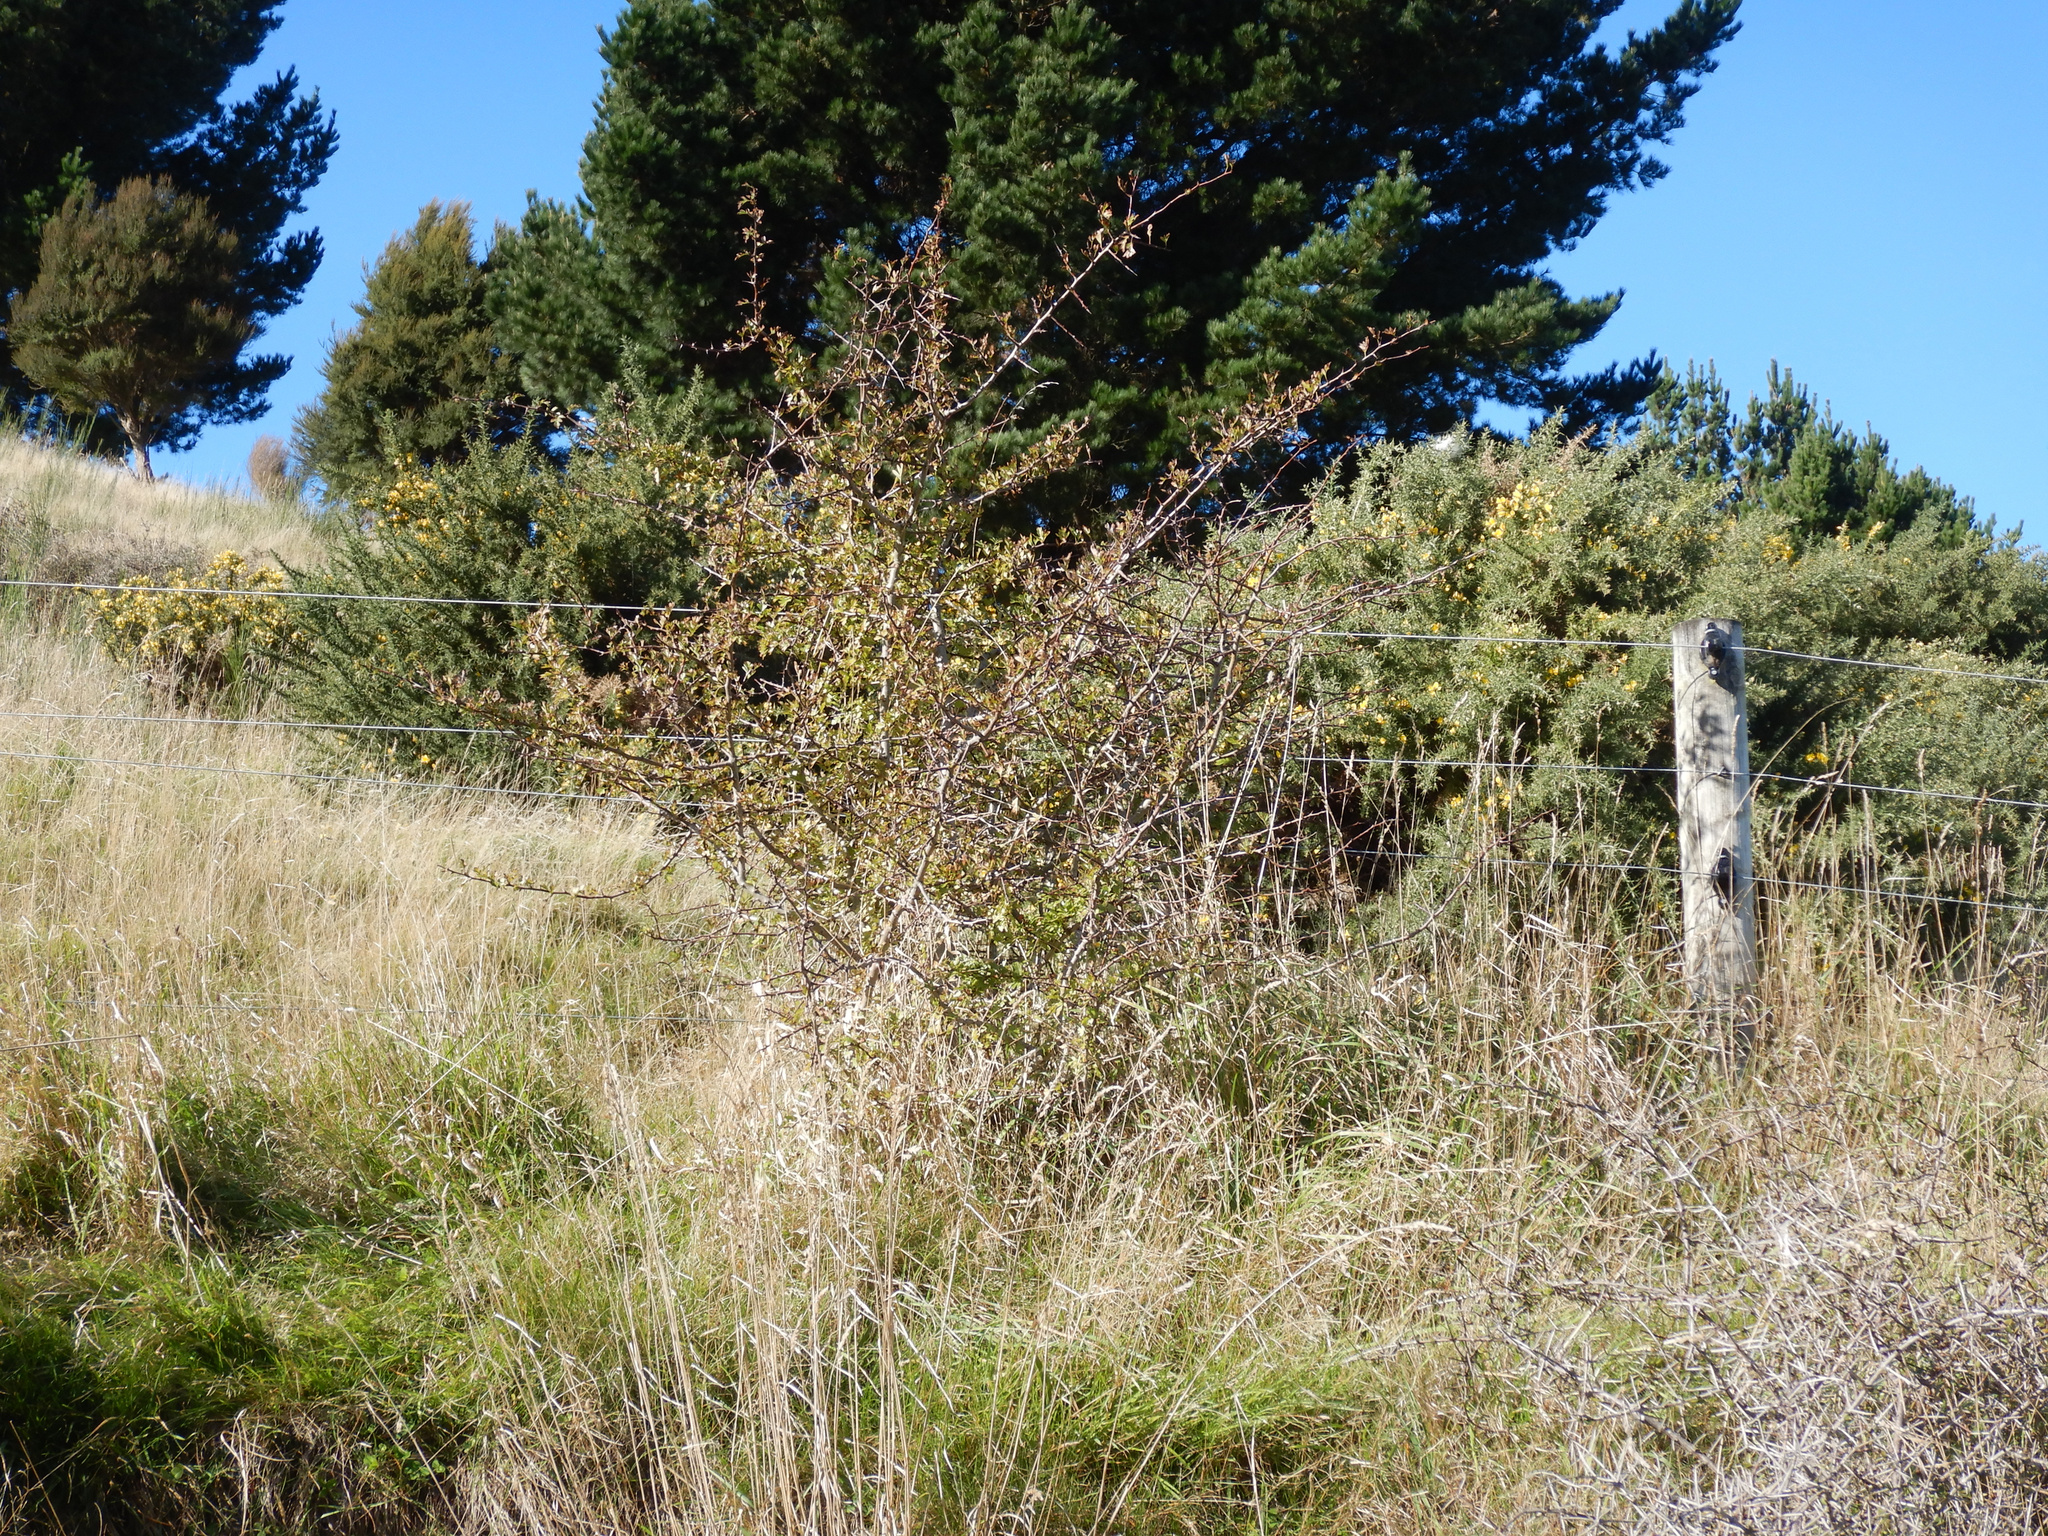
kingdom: Plantae
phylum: Tracheophyta
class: Magnoliopsida
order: Rosales
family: Rosaceae
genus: Crataegus
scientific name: Crataegus monogyna
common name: Hawthorn
